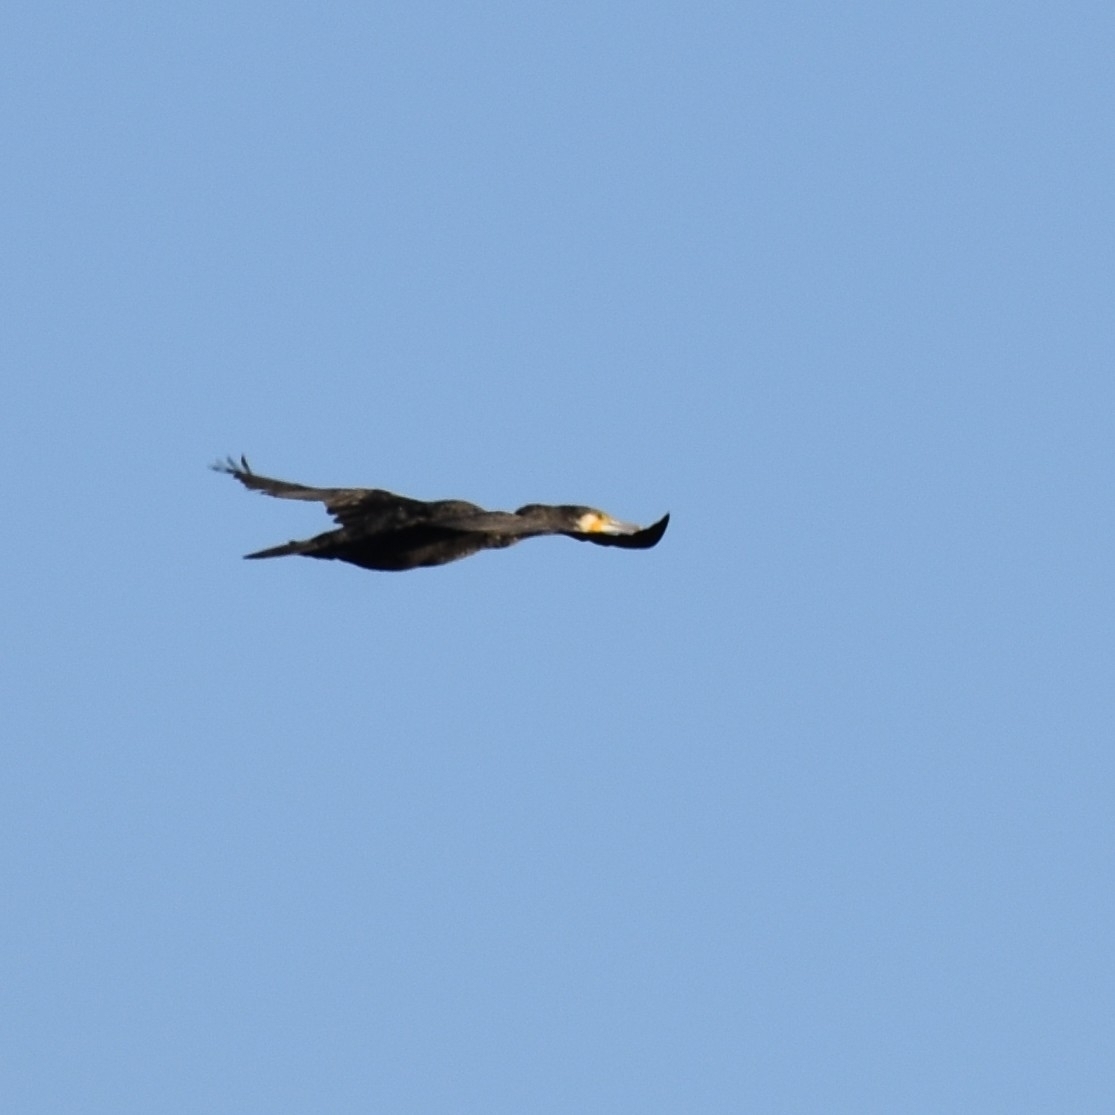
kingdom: Animalia
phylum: Chordata
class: Aves
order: Suliformes
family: Phalacrocoracidae
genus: Phalacrocorax
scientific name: Phalacrocorax carbo
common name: Great cormorant
